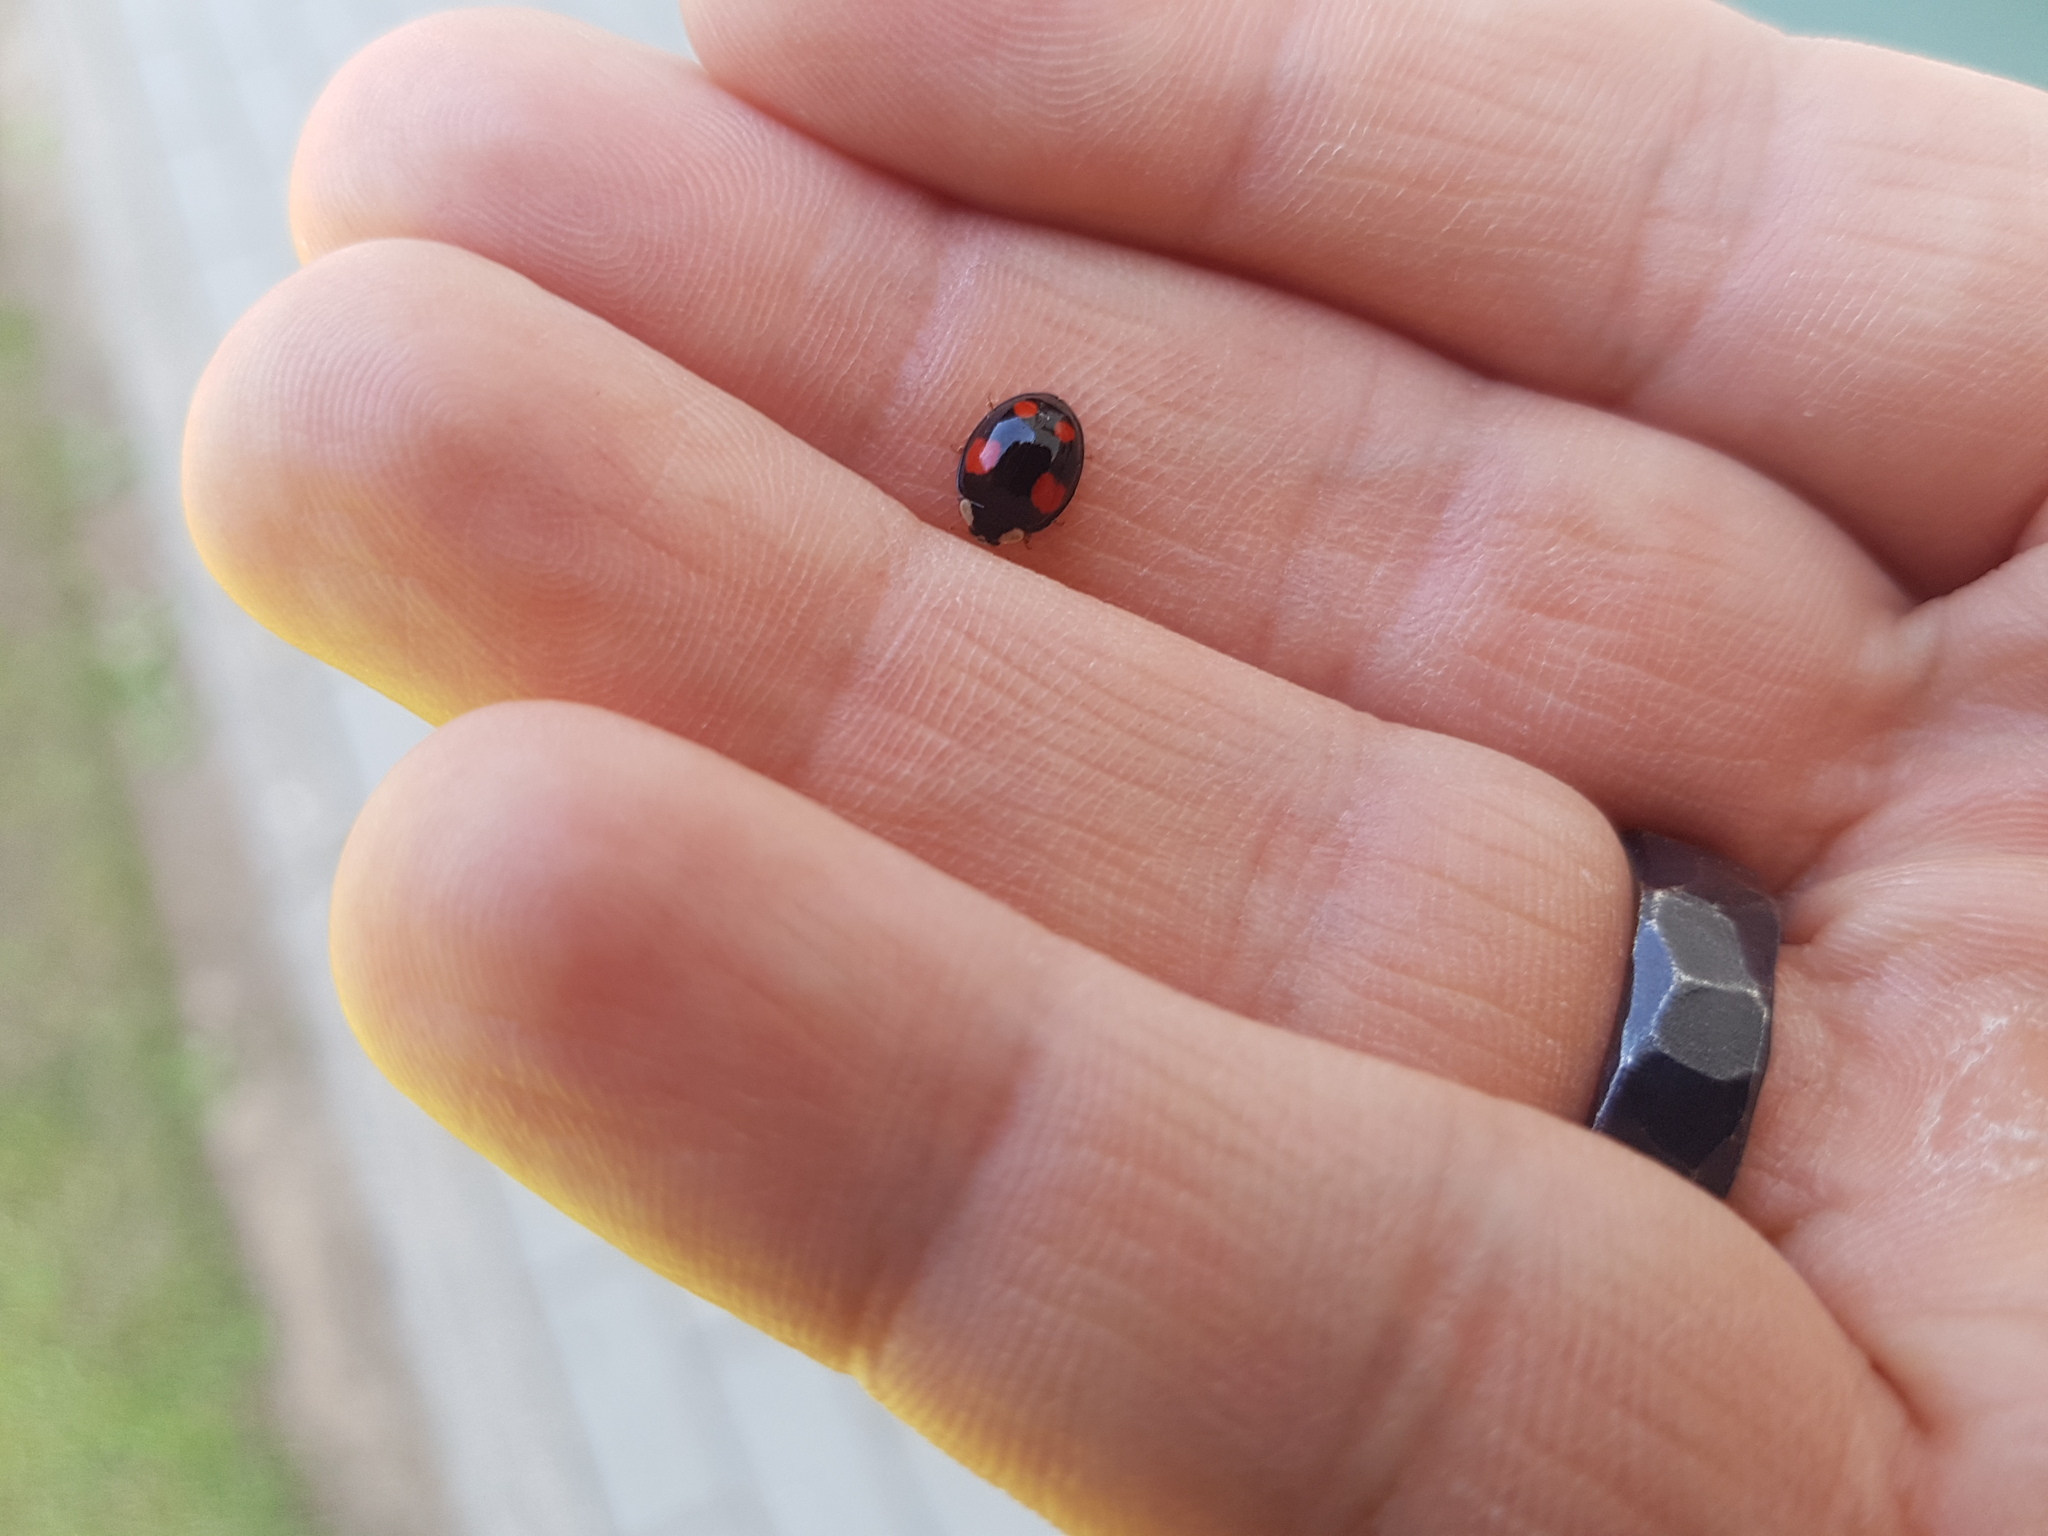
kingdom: Animalia
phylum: Arthropoda
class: Insecta
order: Coleoptera
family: Coccinellidae
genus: Harmonia
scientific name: Harmonia axyridis
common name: Harlequin ladybird
